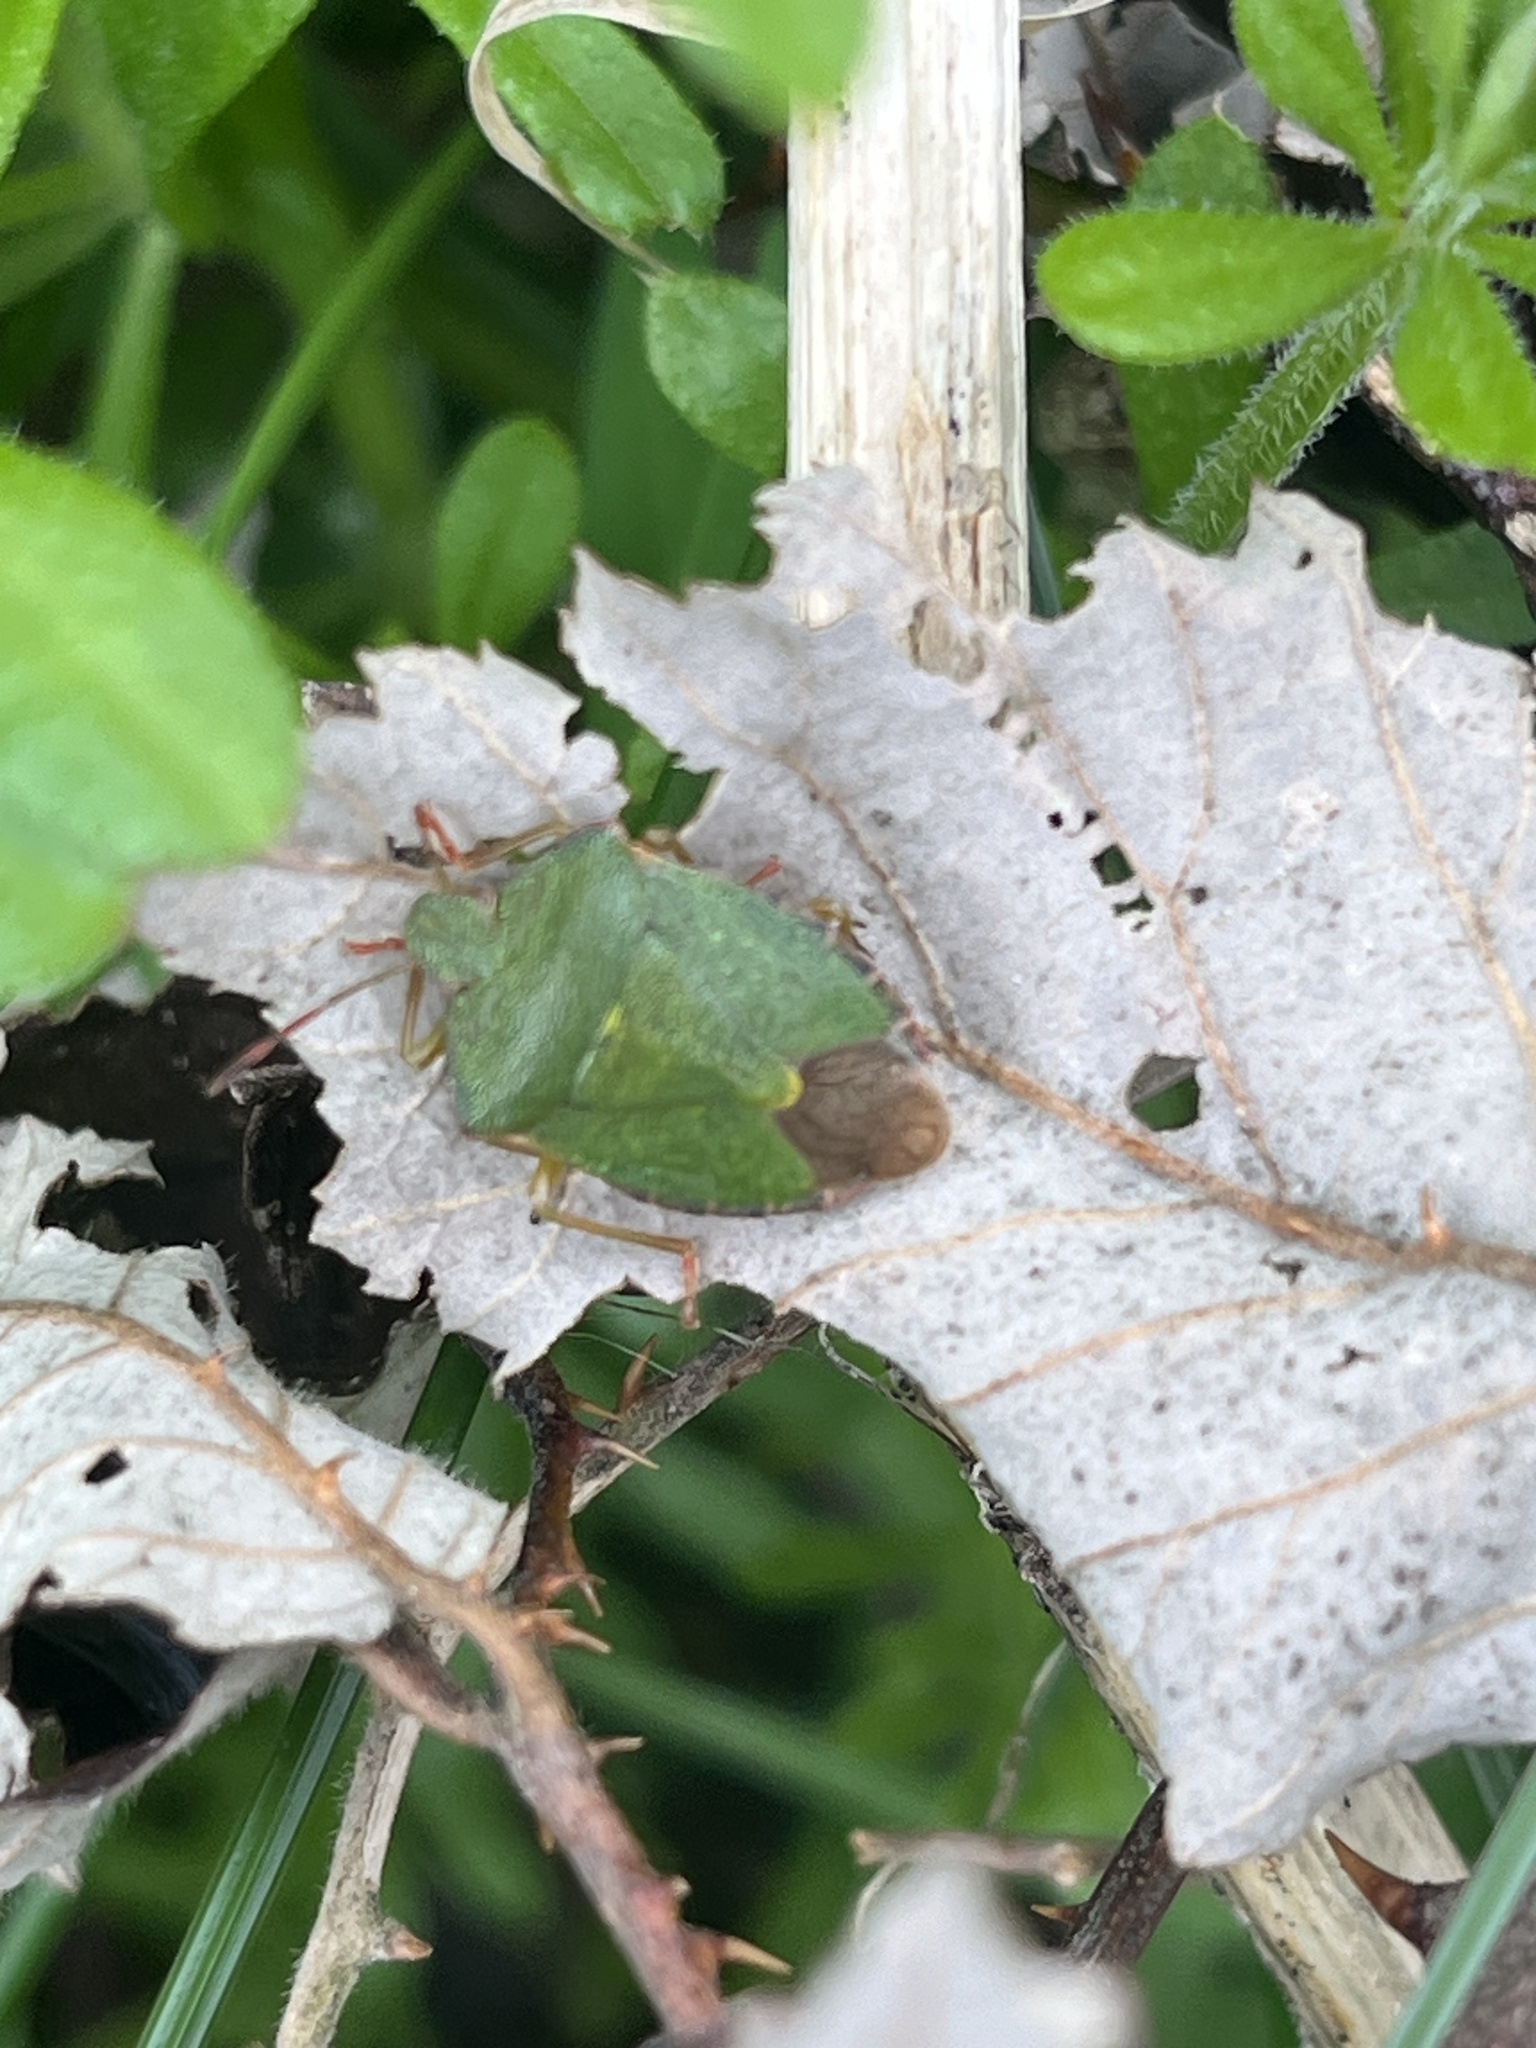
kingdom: Animalia
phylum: Arthropoda
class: Insecta
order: Hemiptera
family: Pentatomidae
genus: Palomena
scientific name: Palomena prasina
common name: Green shieldbug
